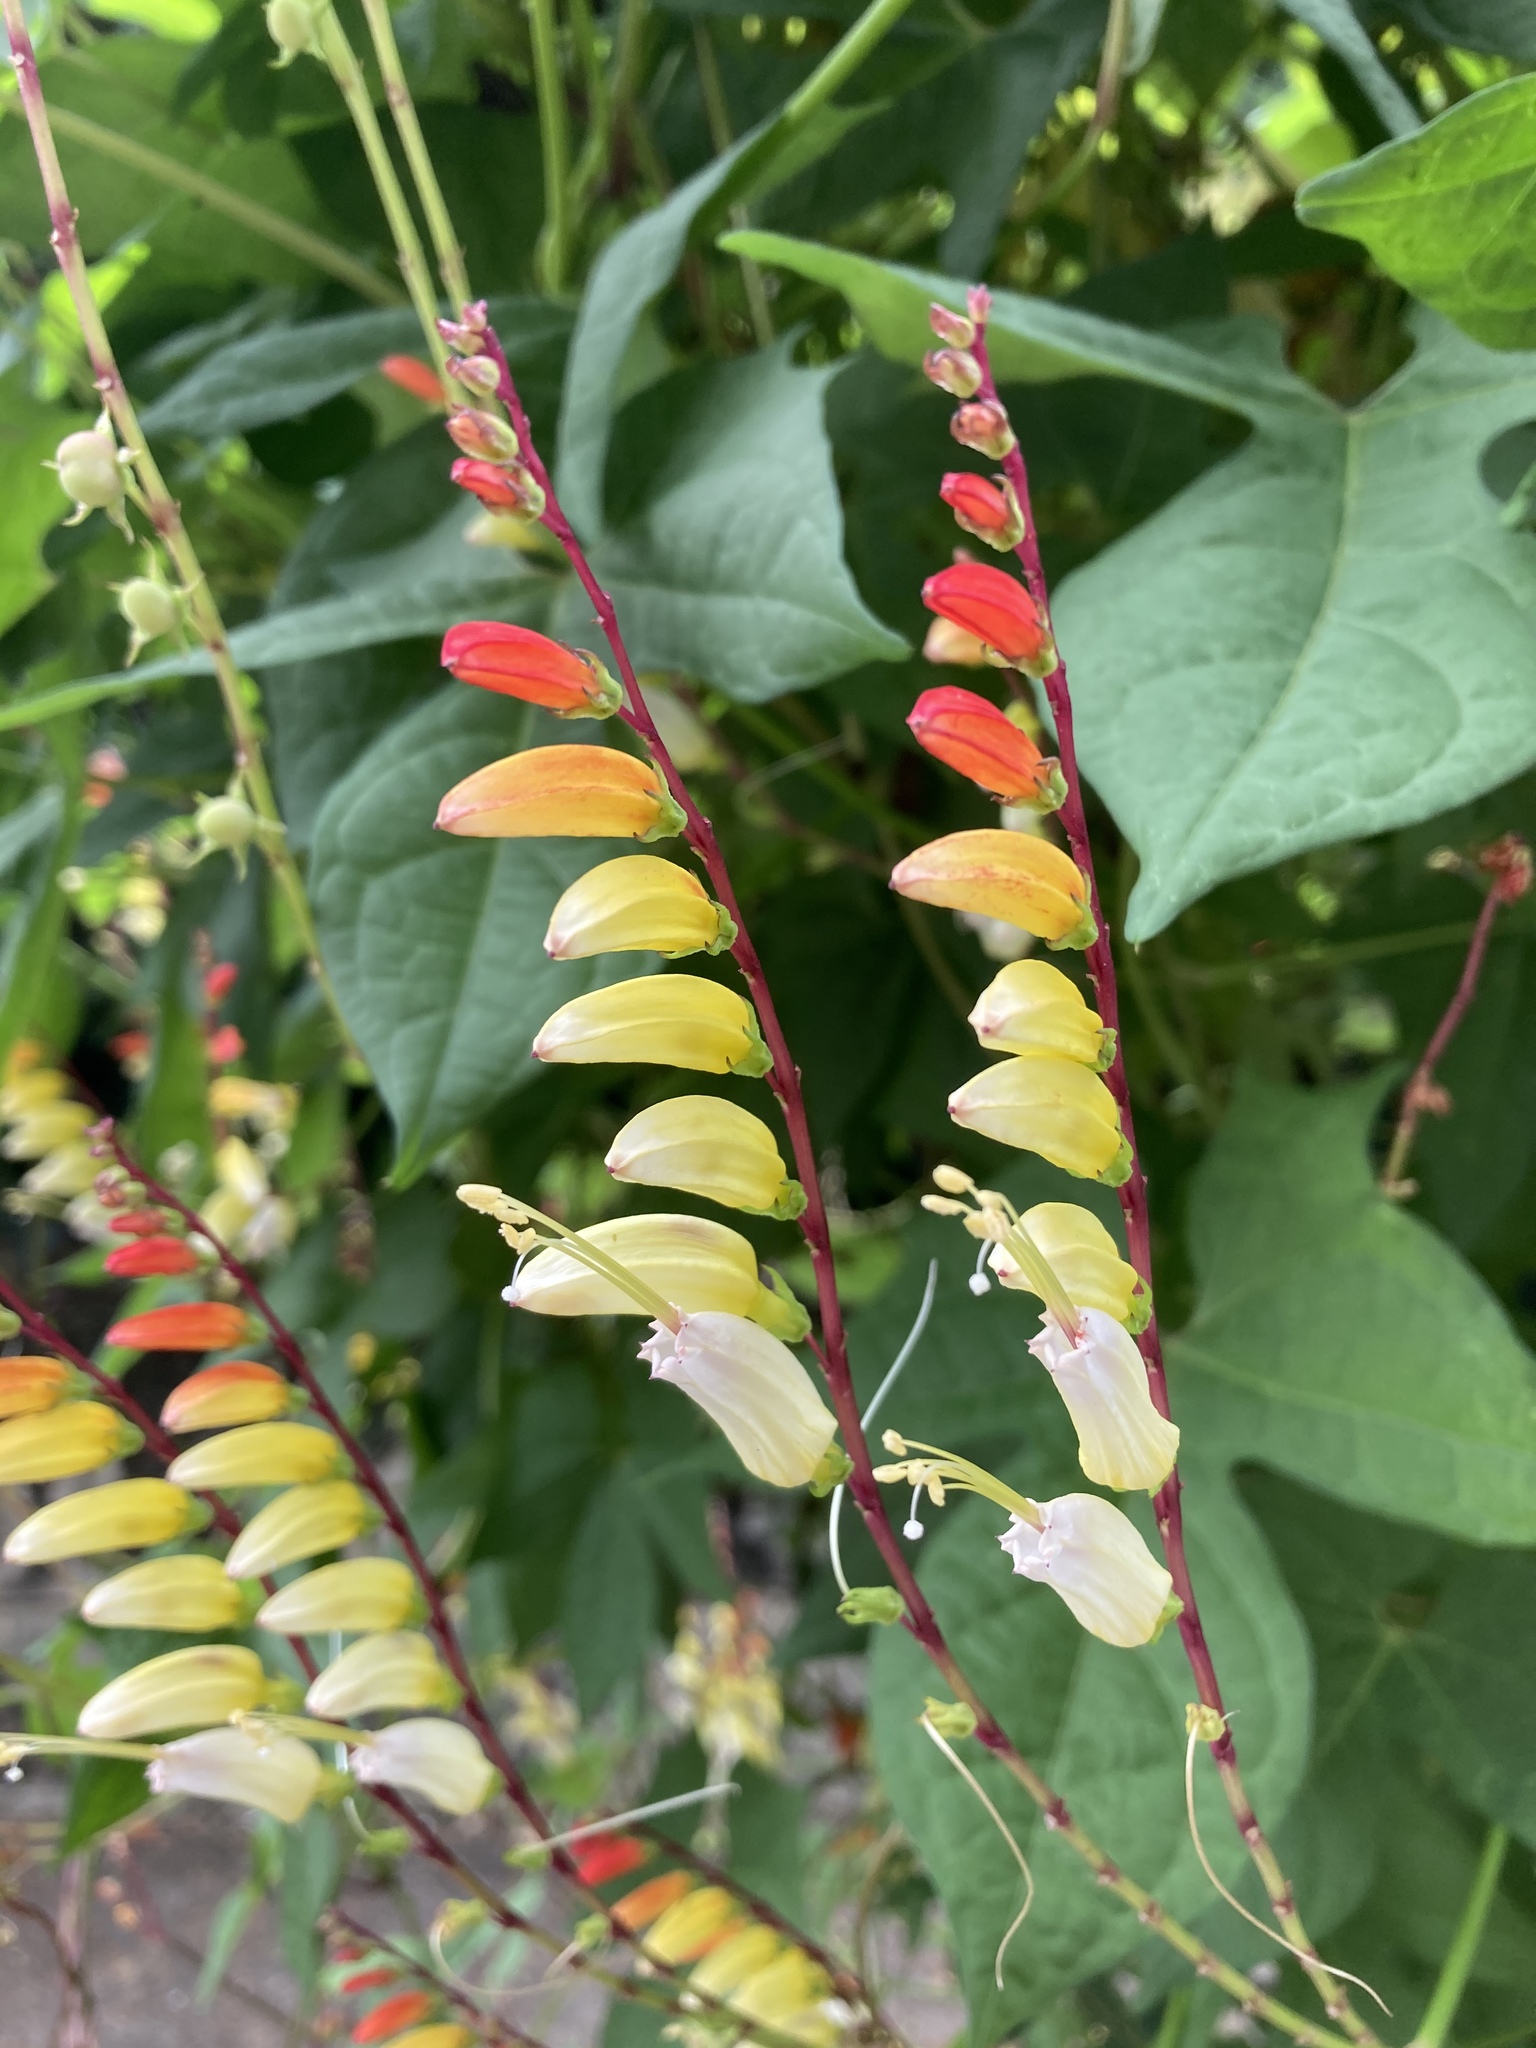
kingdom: Plantae
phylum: Tracheophyta
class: Magnoliopsida
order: Solanales
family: Convolvulaceae
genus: Ipomoea
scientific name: Ipomoea lobata
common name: Spanish-flag
